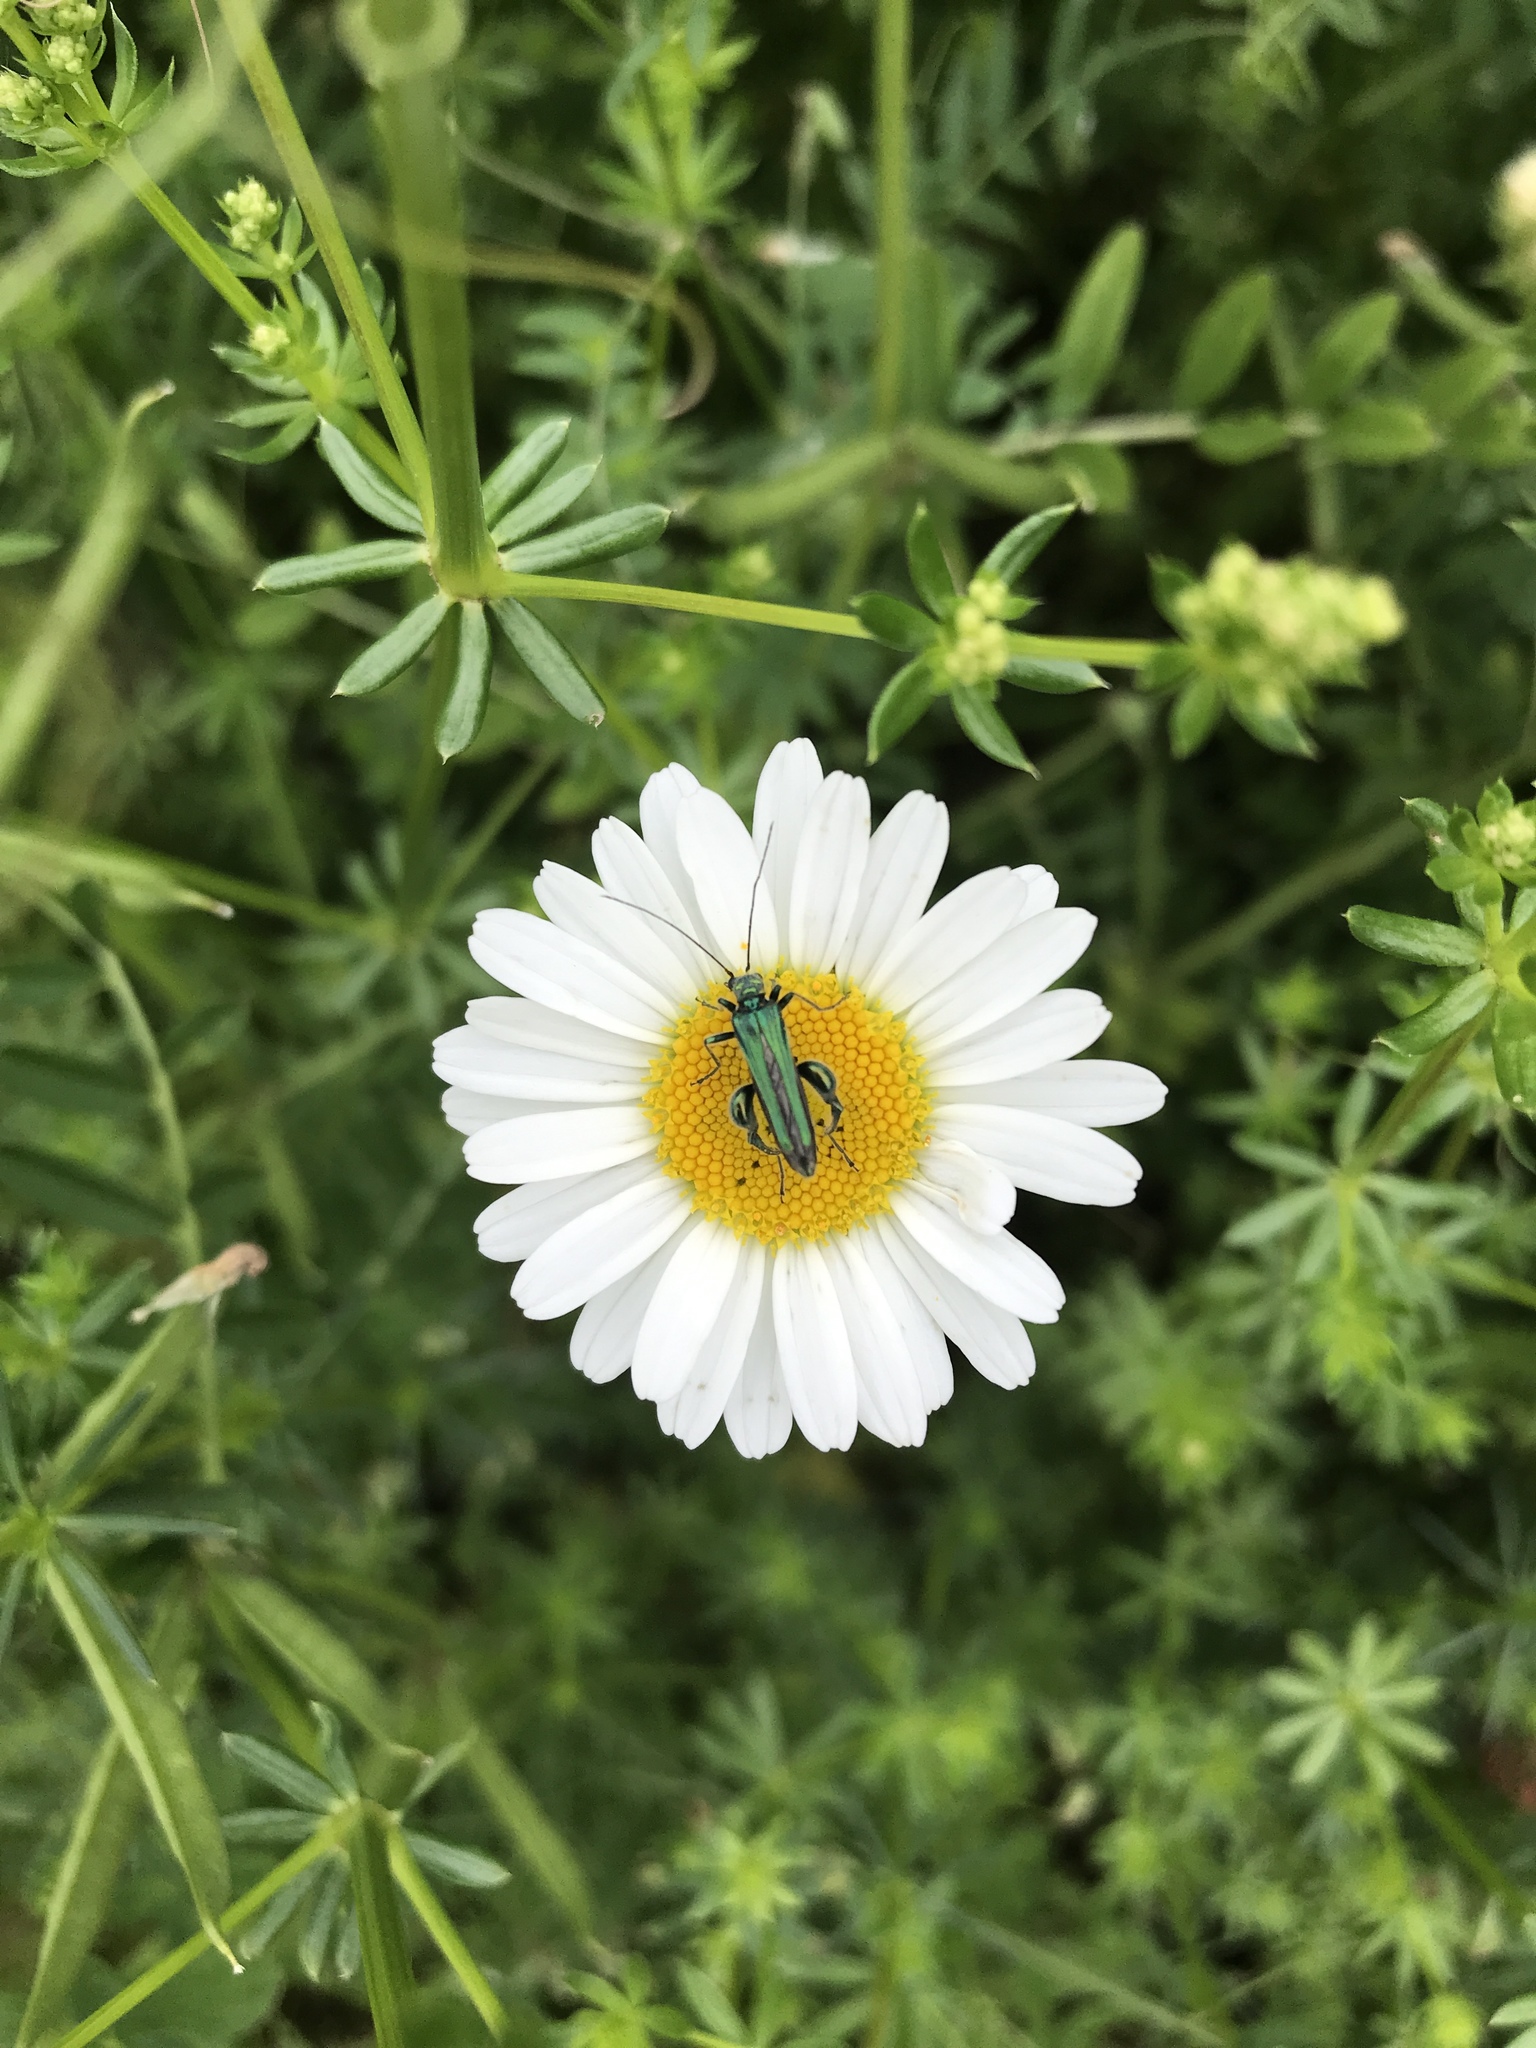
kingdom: Animalia
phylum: Arthropoda
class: Insecta
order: Coleoptera
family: Oedemeridae
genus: Oedemera
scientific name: Oedemera nobilis
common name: Swollen-thighed beetle
